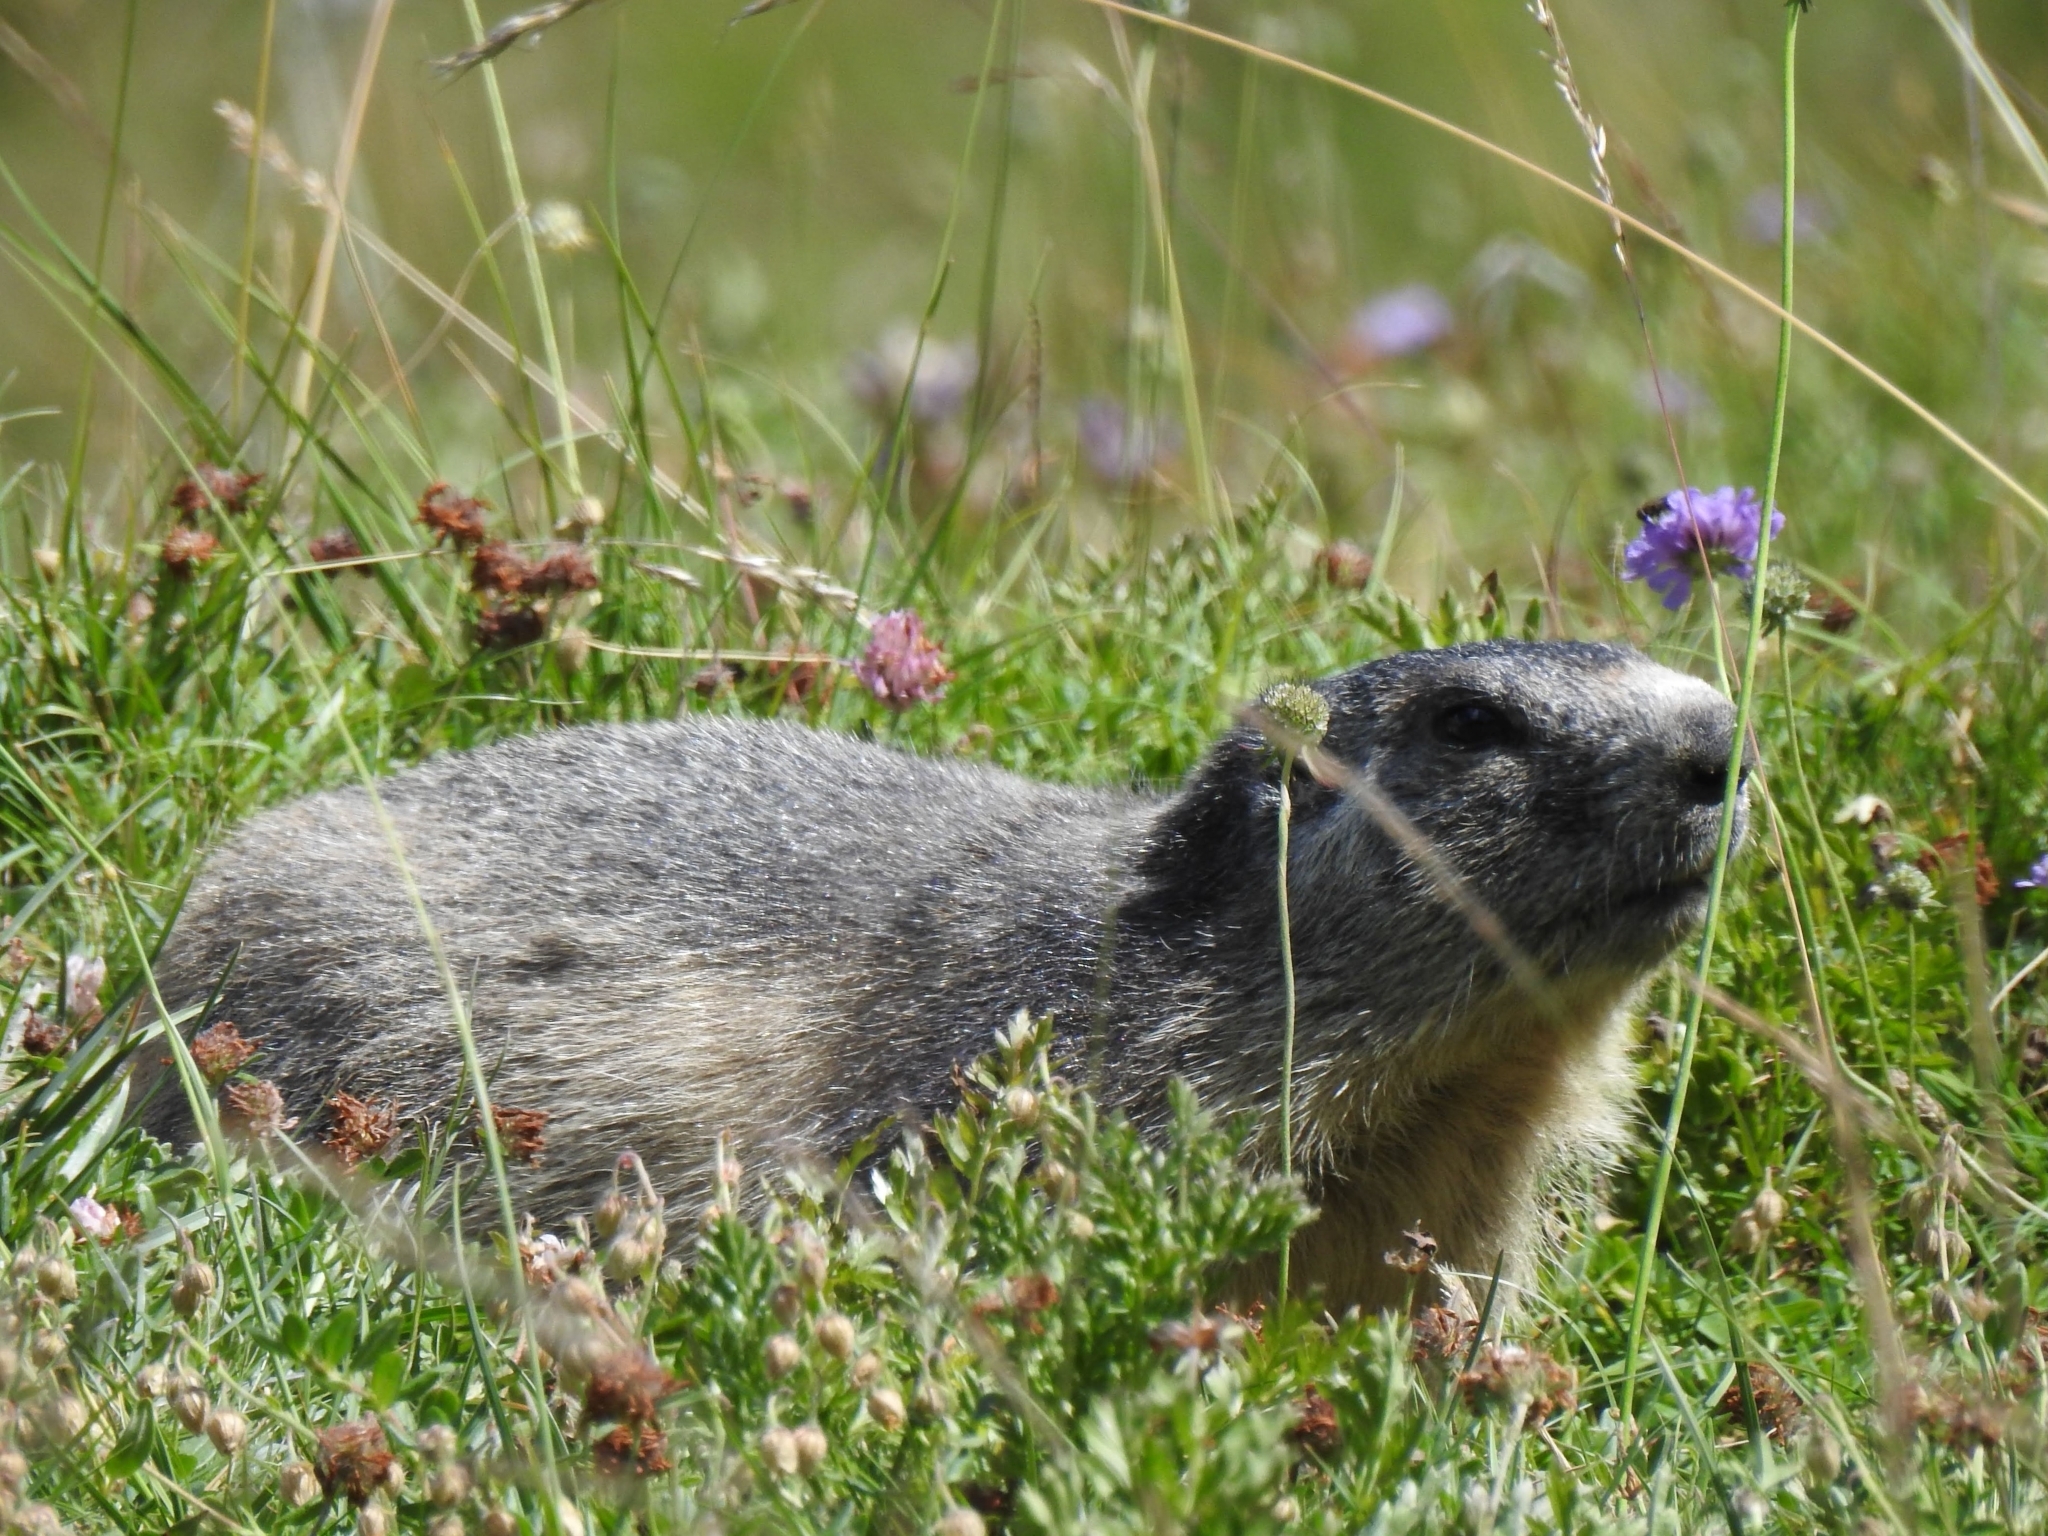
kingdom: Animalia
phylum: Chordata
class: Mammalia
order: Rodentia
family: Sciuridae
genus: Marmota
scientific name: Marmota marmota
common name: Alpine marmot
